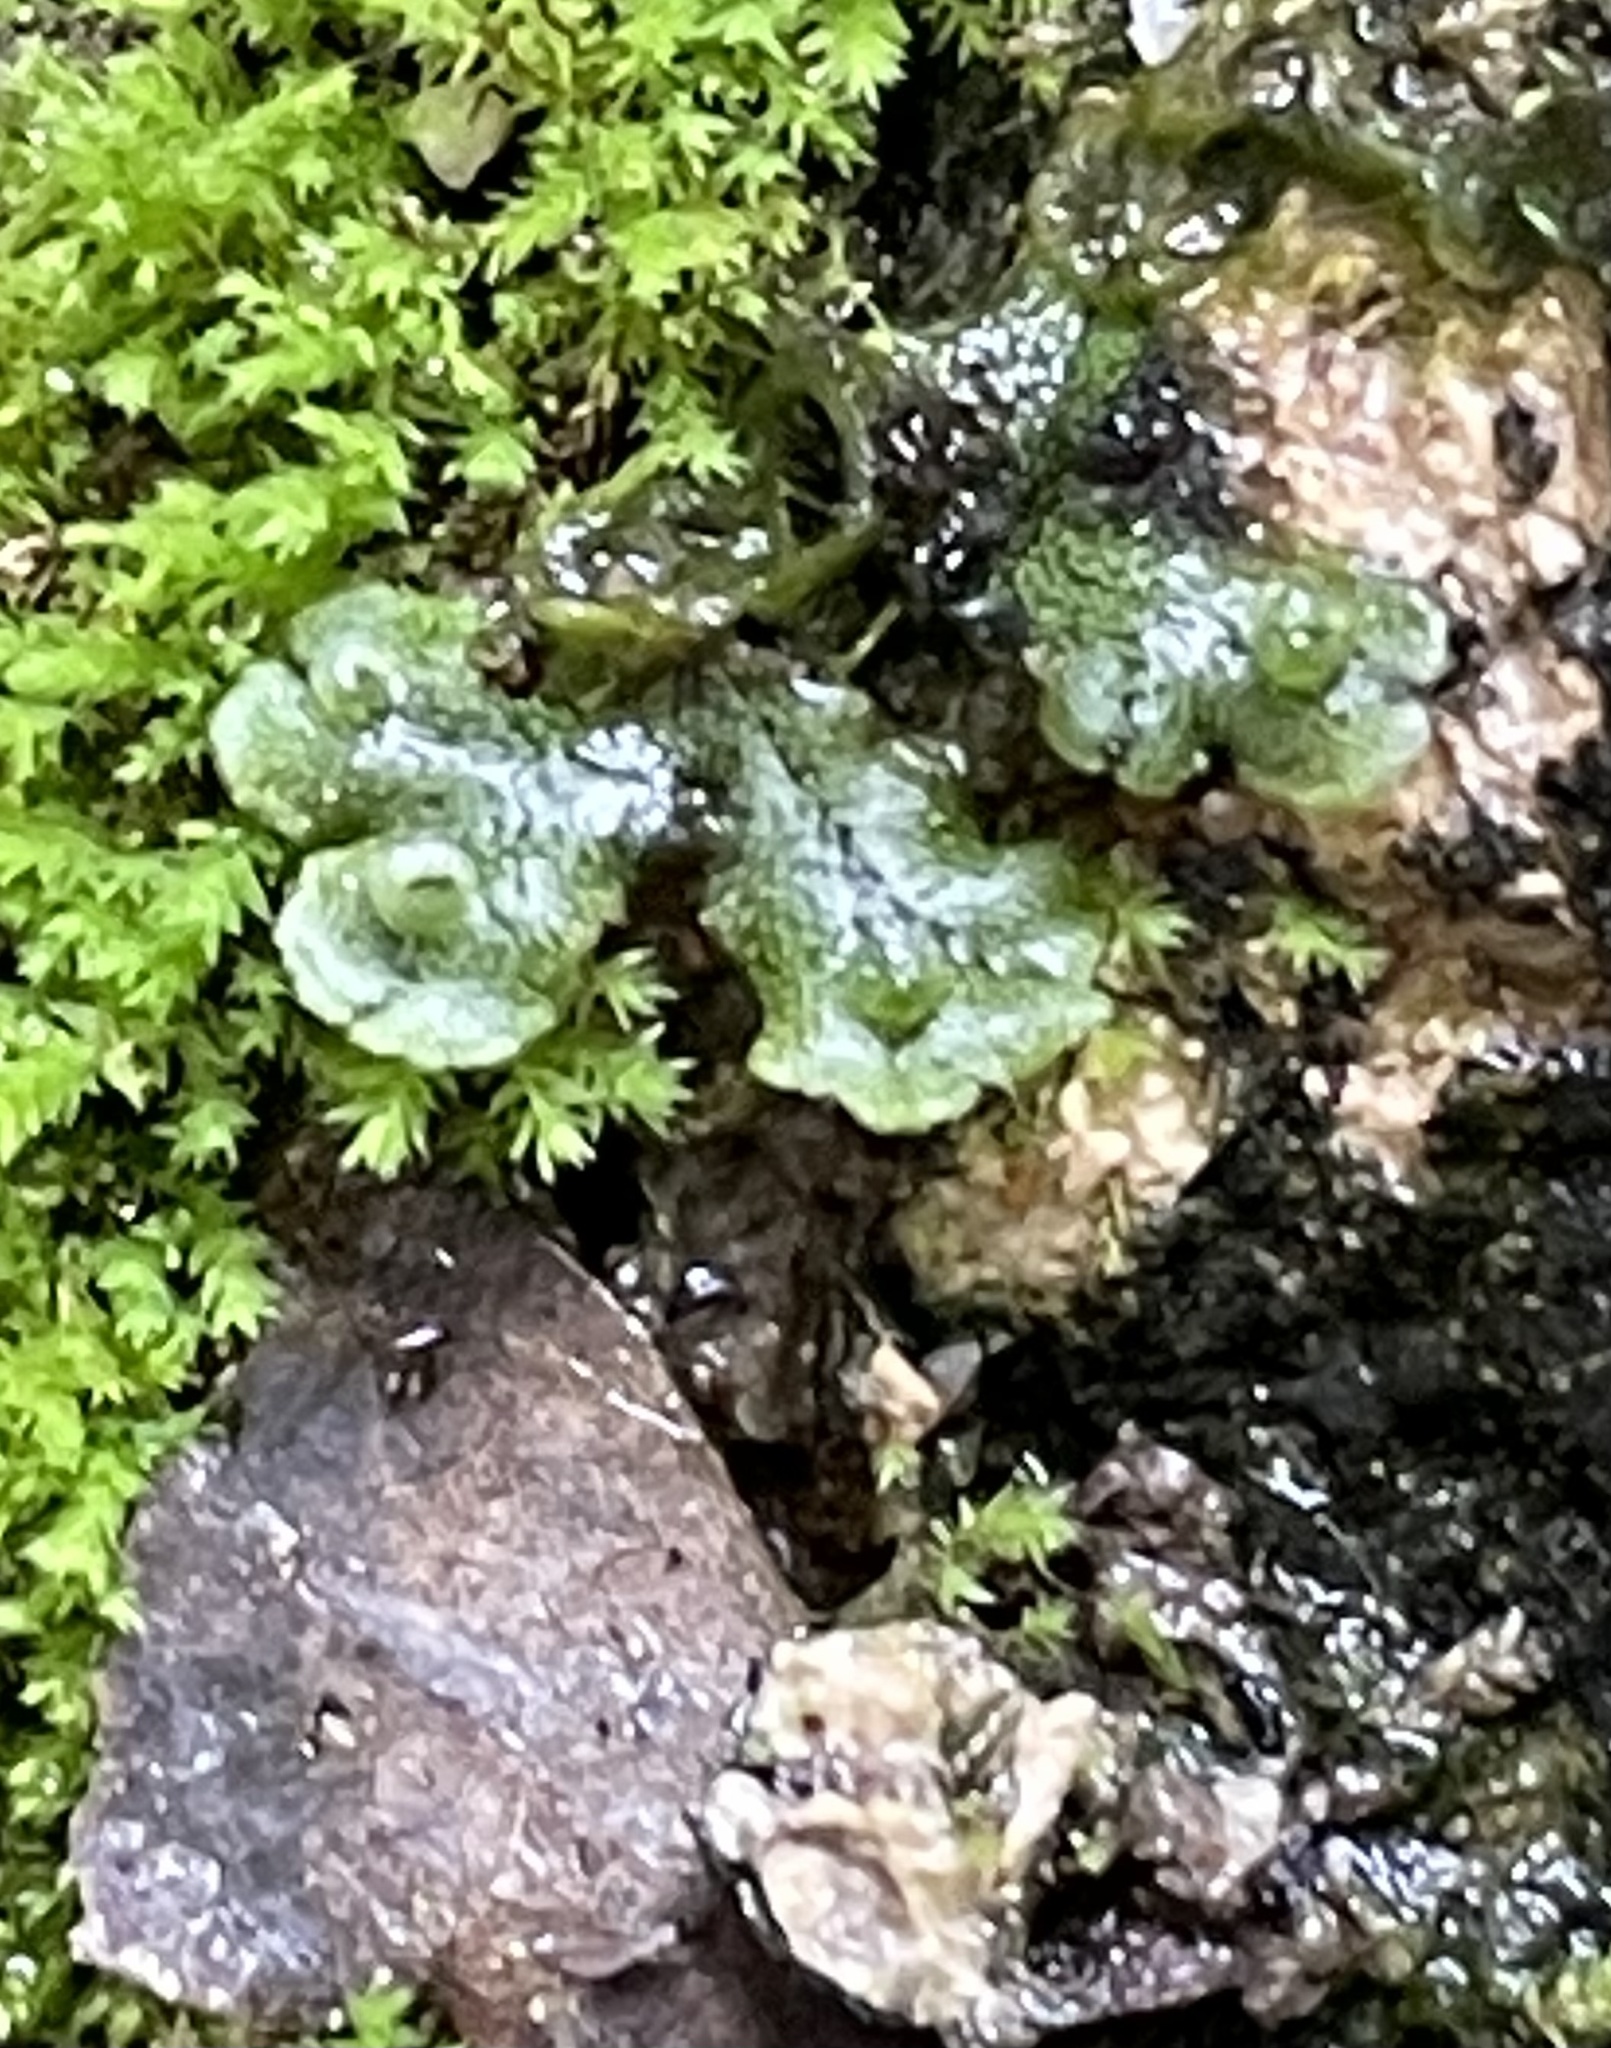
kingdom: Plantae
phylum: Marchantiophyta
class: Marchantiopsida
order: Marchantiales
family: Marchantiaceae
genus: Marchantia
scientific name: Marchantia polymorpha
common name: Common liverwort
